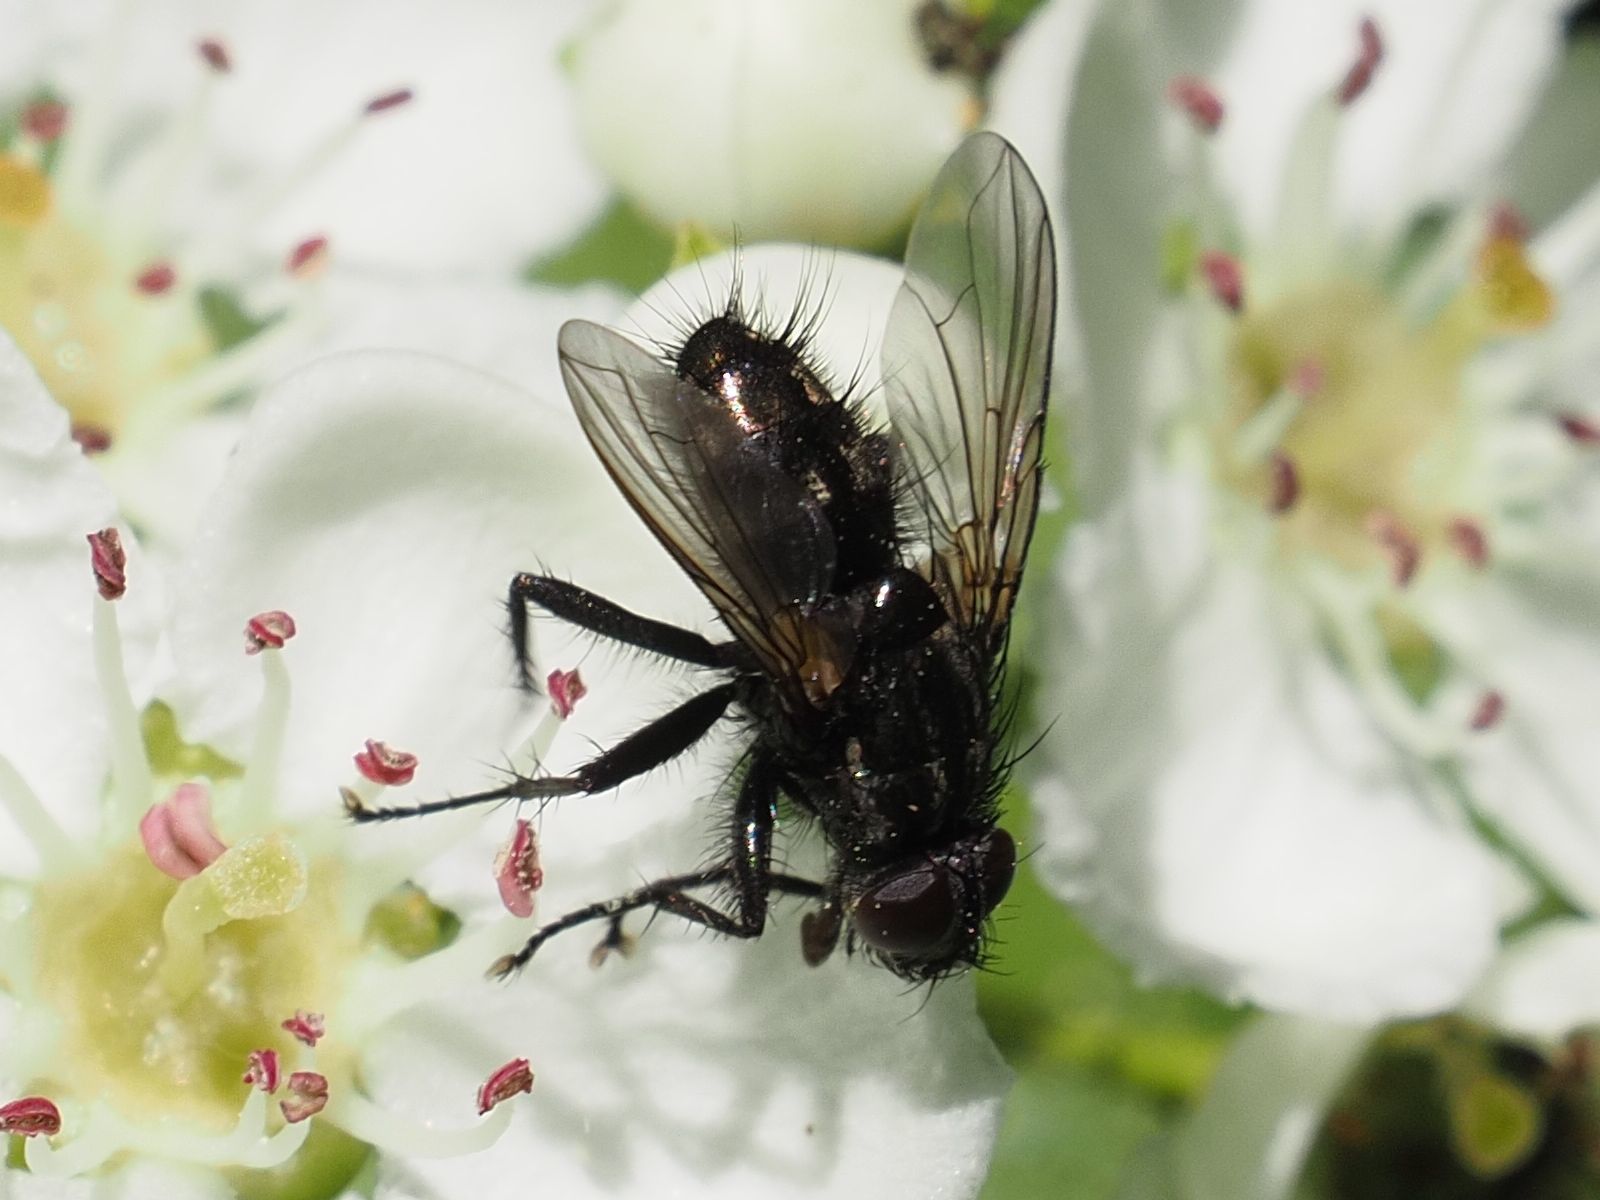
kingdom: Animalia
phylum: Arthropoda
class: Insecta
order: Diptera
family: Calliphoridae
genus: Rhinomorinia
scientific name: Rhinomorinia sarcophagina
